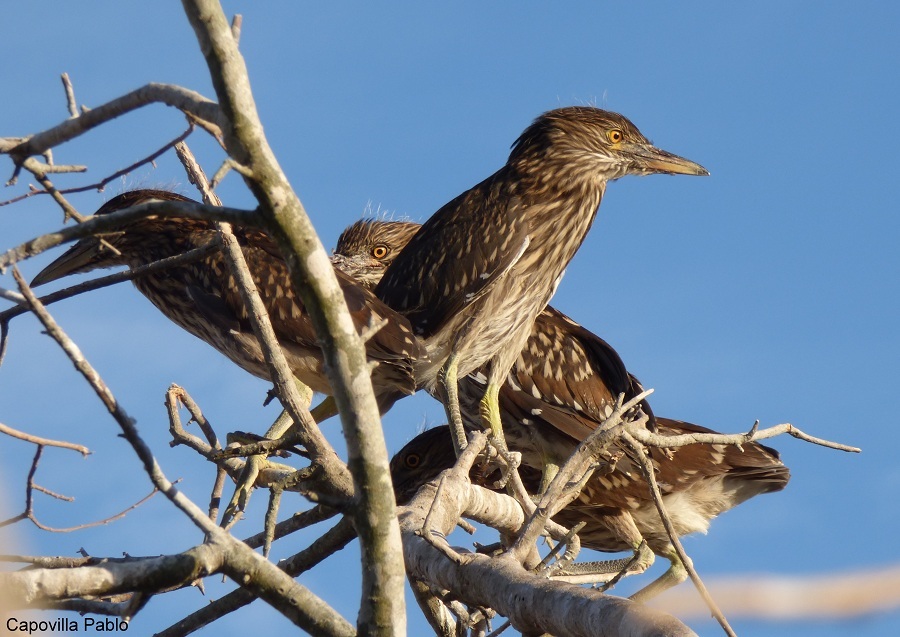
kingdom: Animalia
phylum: Chordata
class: Aves
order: Pelecaniformes
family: Ardeidae
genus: Nycticorax
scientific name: Nycticorax nycticorax
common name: Black-crowned night heron
